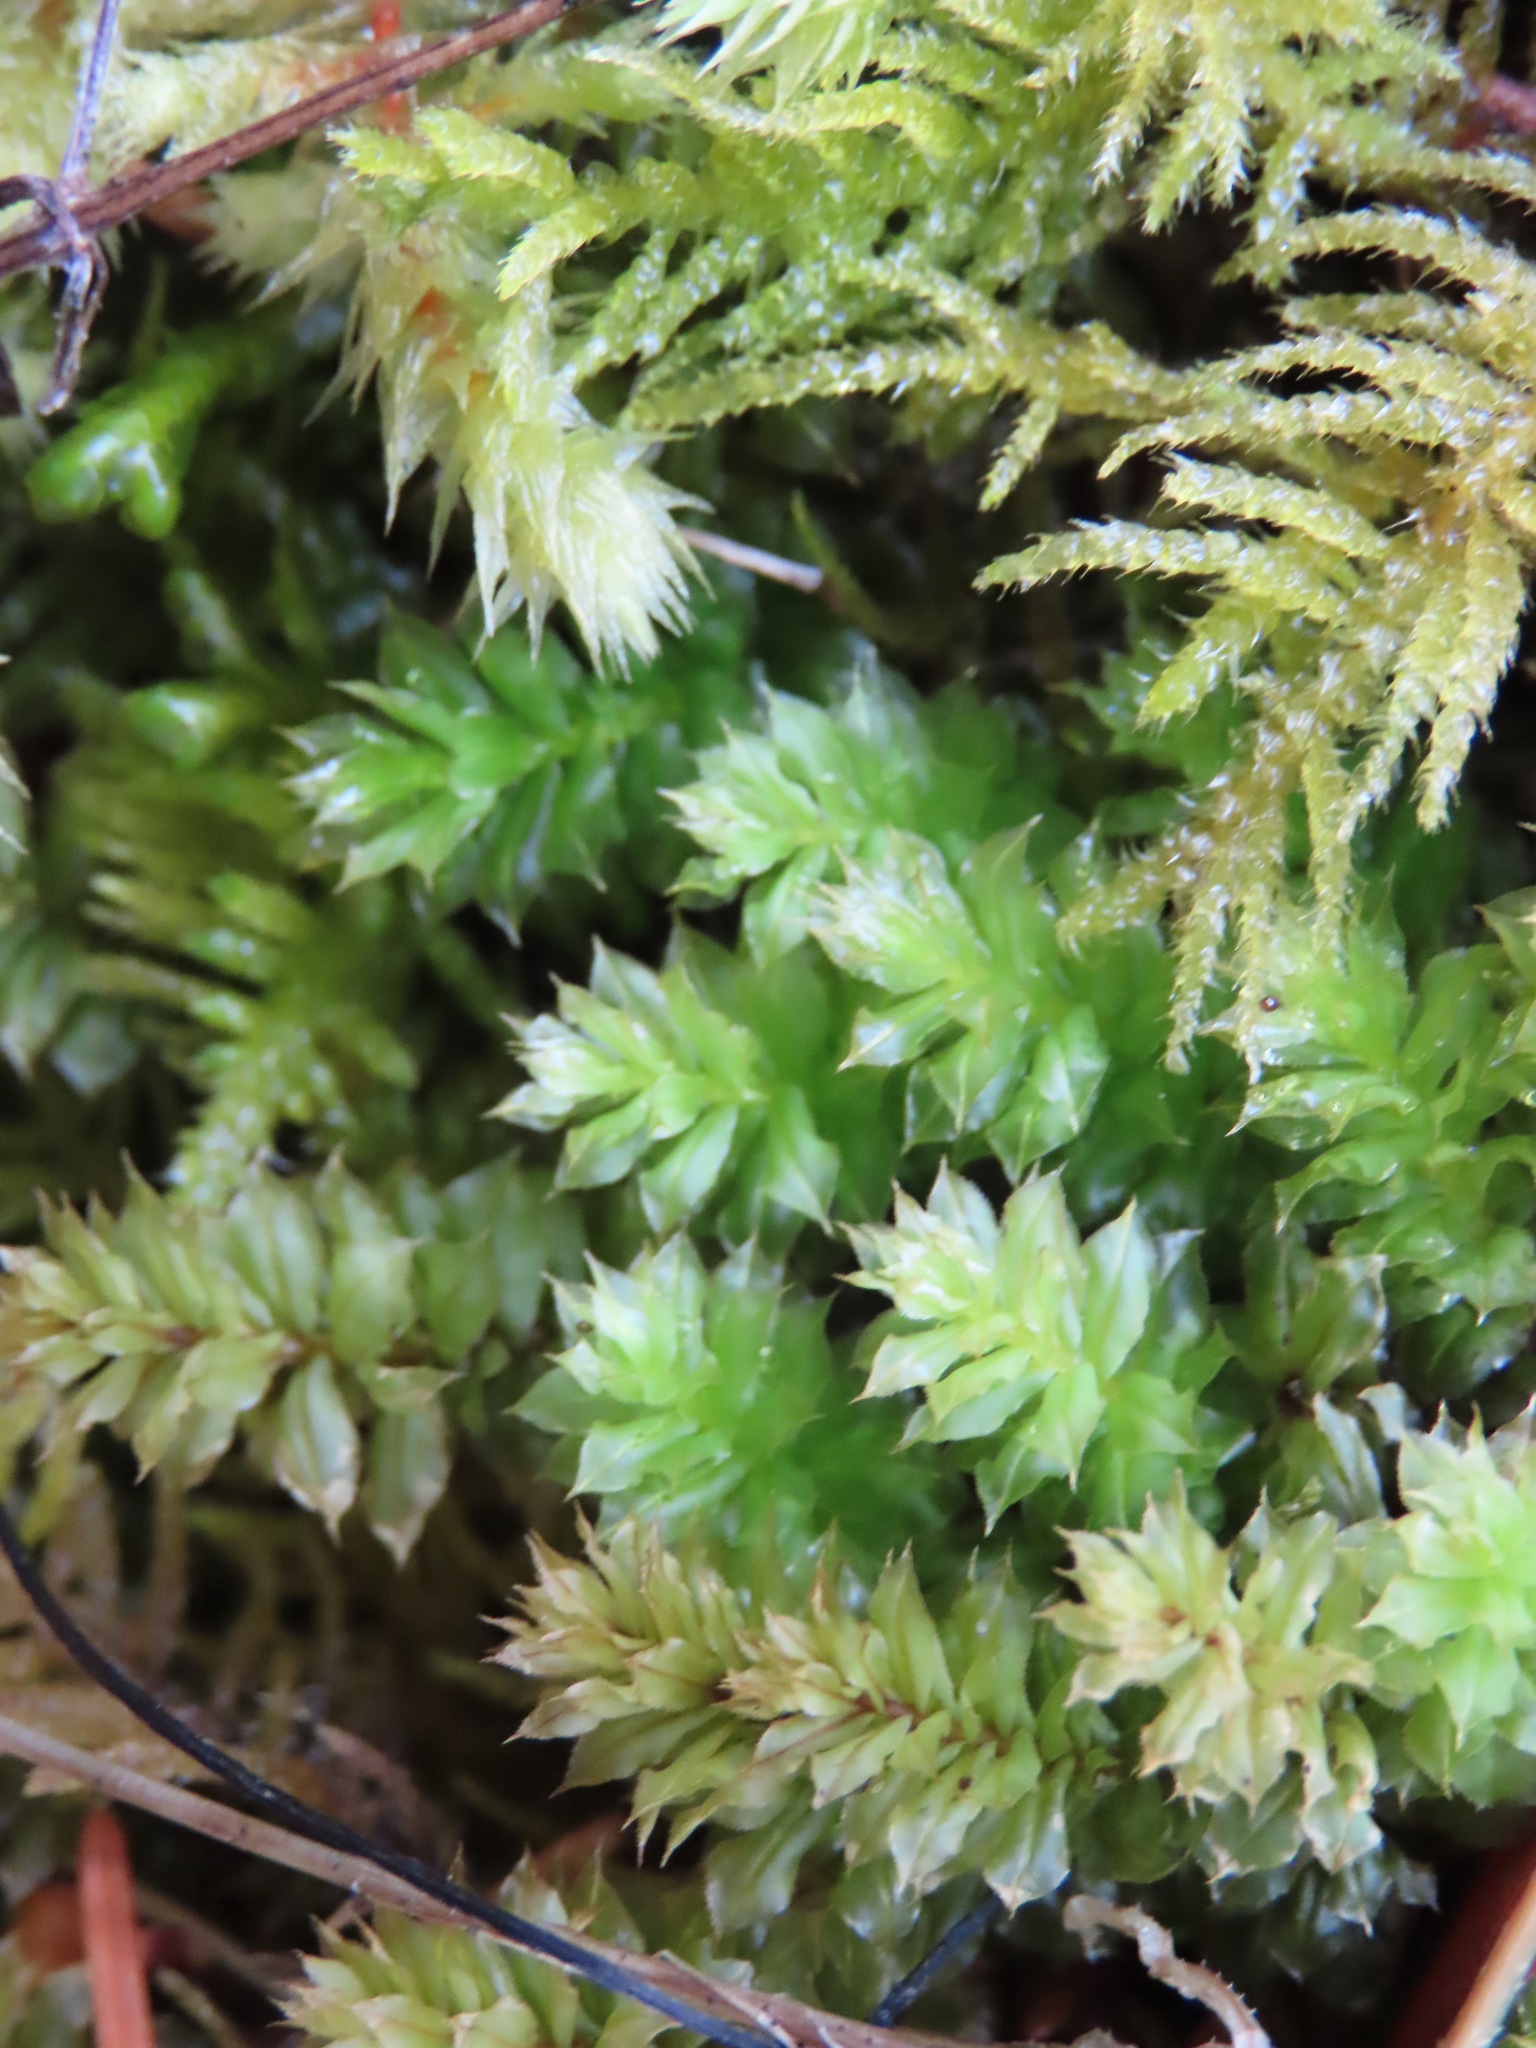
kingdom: Plantae
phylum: Bryophyta
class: Bryopsida
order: Bryales
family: Mniaceae
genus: Plagiomnium
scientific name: Plagiomnium venustum
